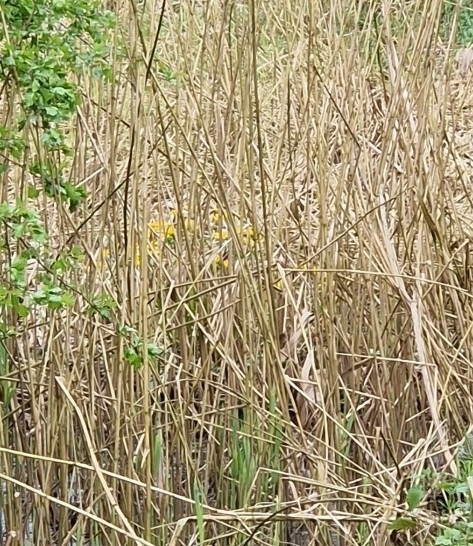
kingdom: Plantae
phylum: Tracheophyta
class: Magnoliopsida
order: Ranunculales
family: Ranunculaceae
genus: Caltha
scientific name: Caltha palustris
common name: Marsh marigold
